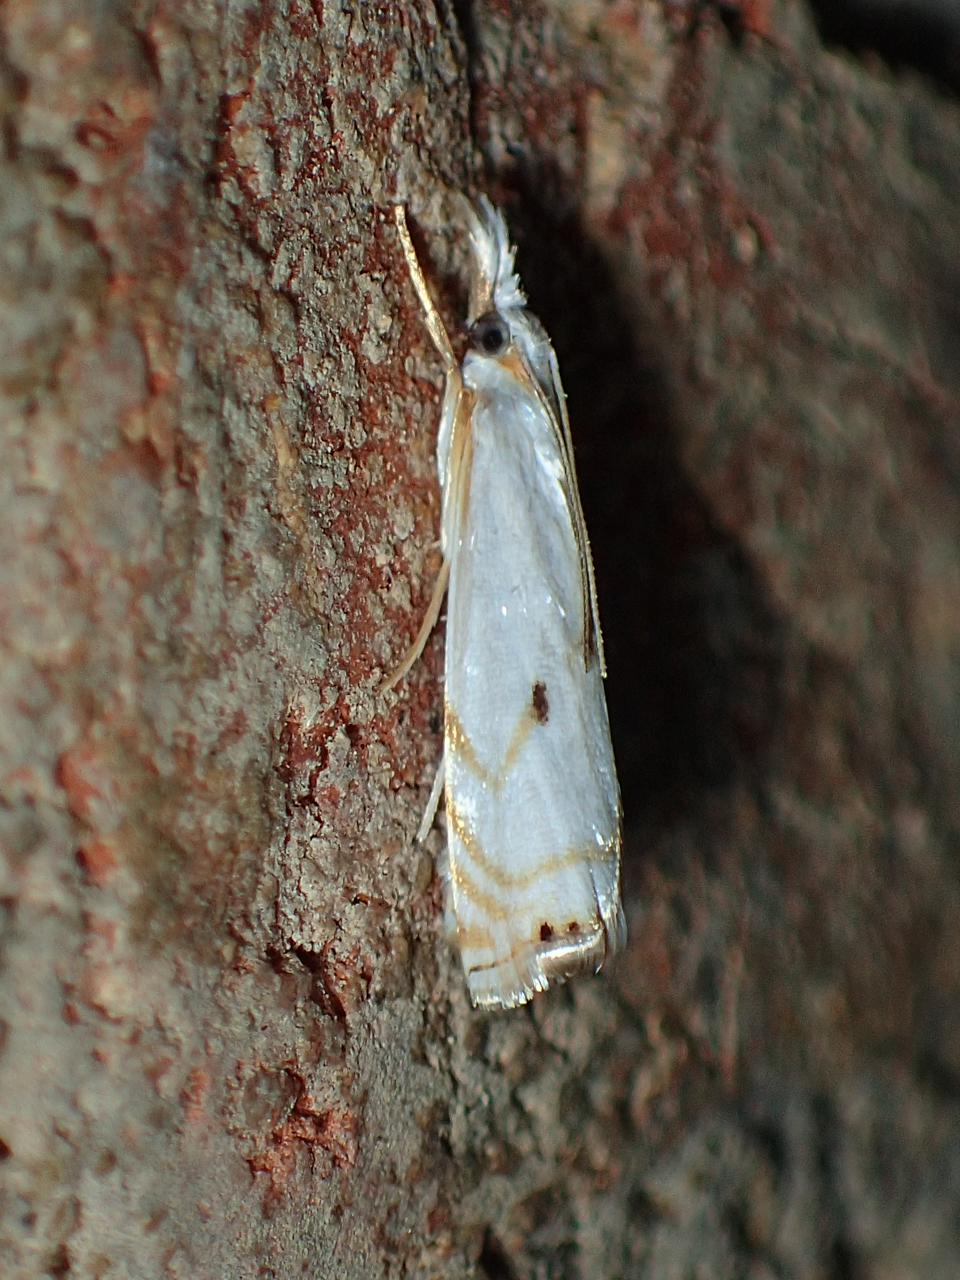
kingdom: Animalia
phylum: Arthropoda
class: Insecta
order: Lepidoptera
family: Crambidae
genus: Microcrambus
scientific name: Microcrambus biguttellus
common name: Gold-stripe grass-veneer moth
